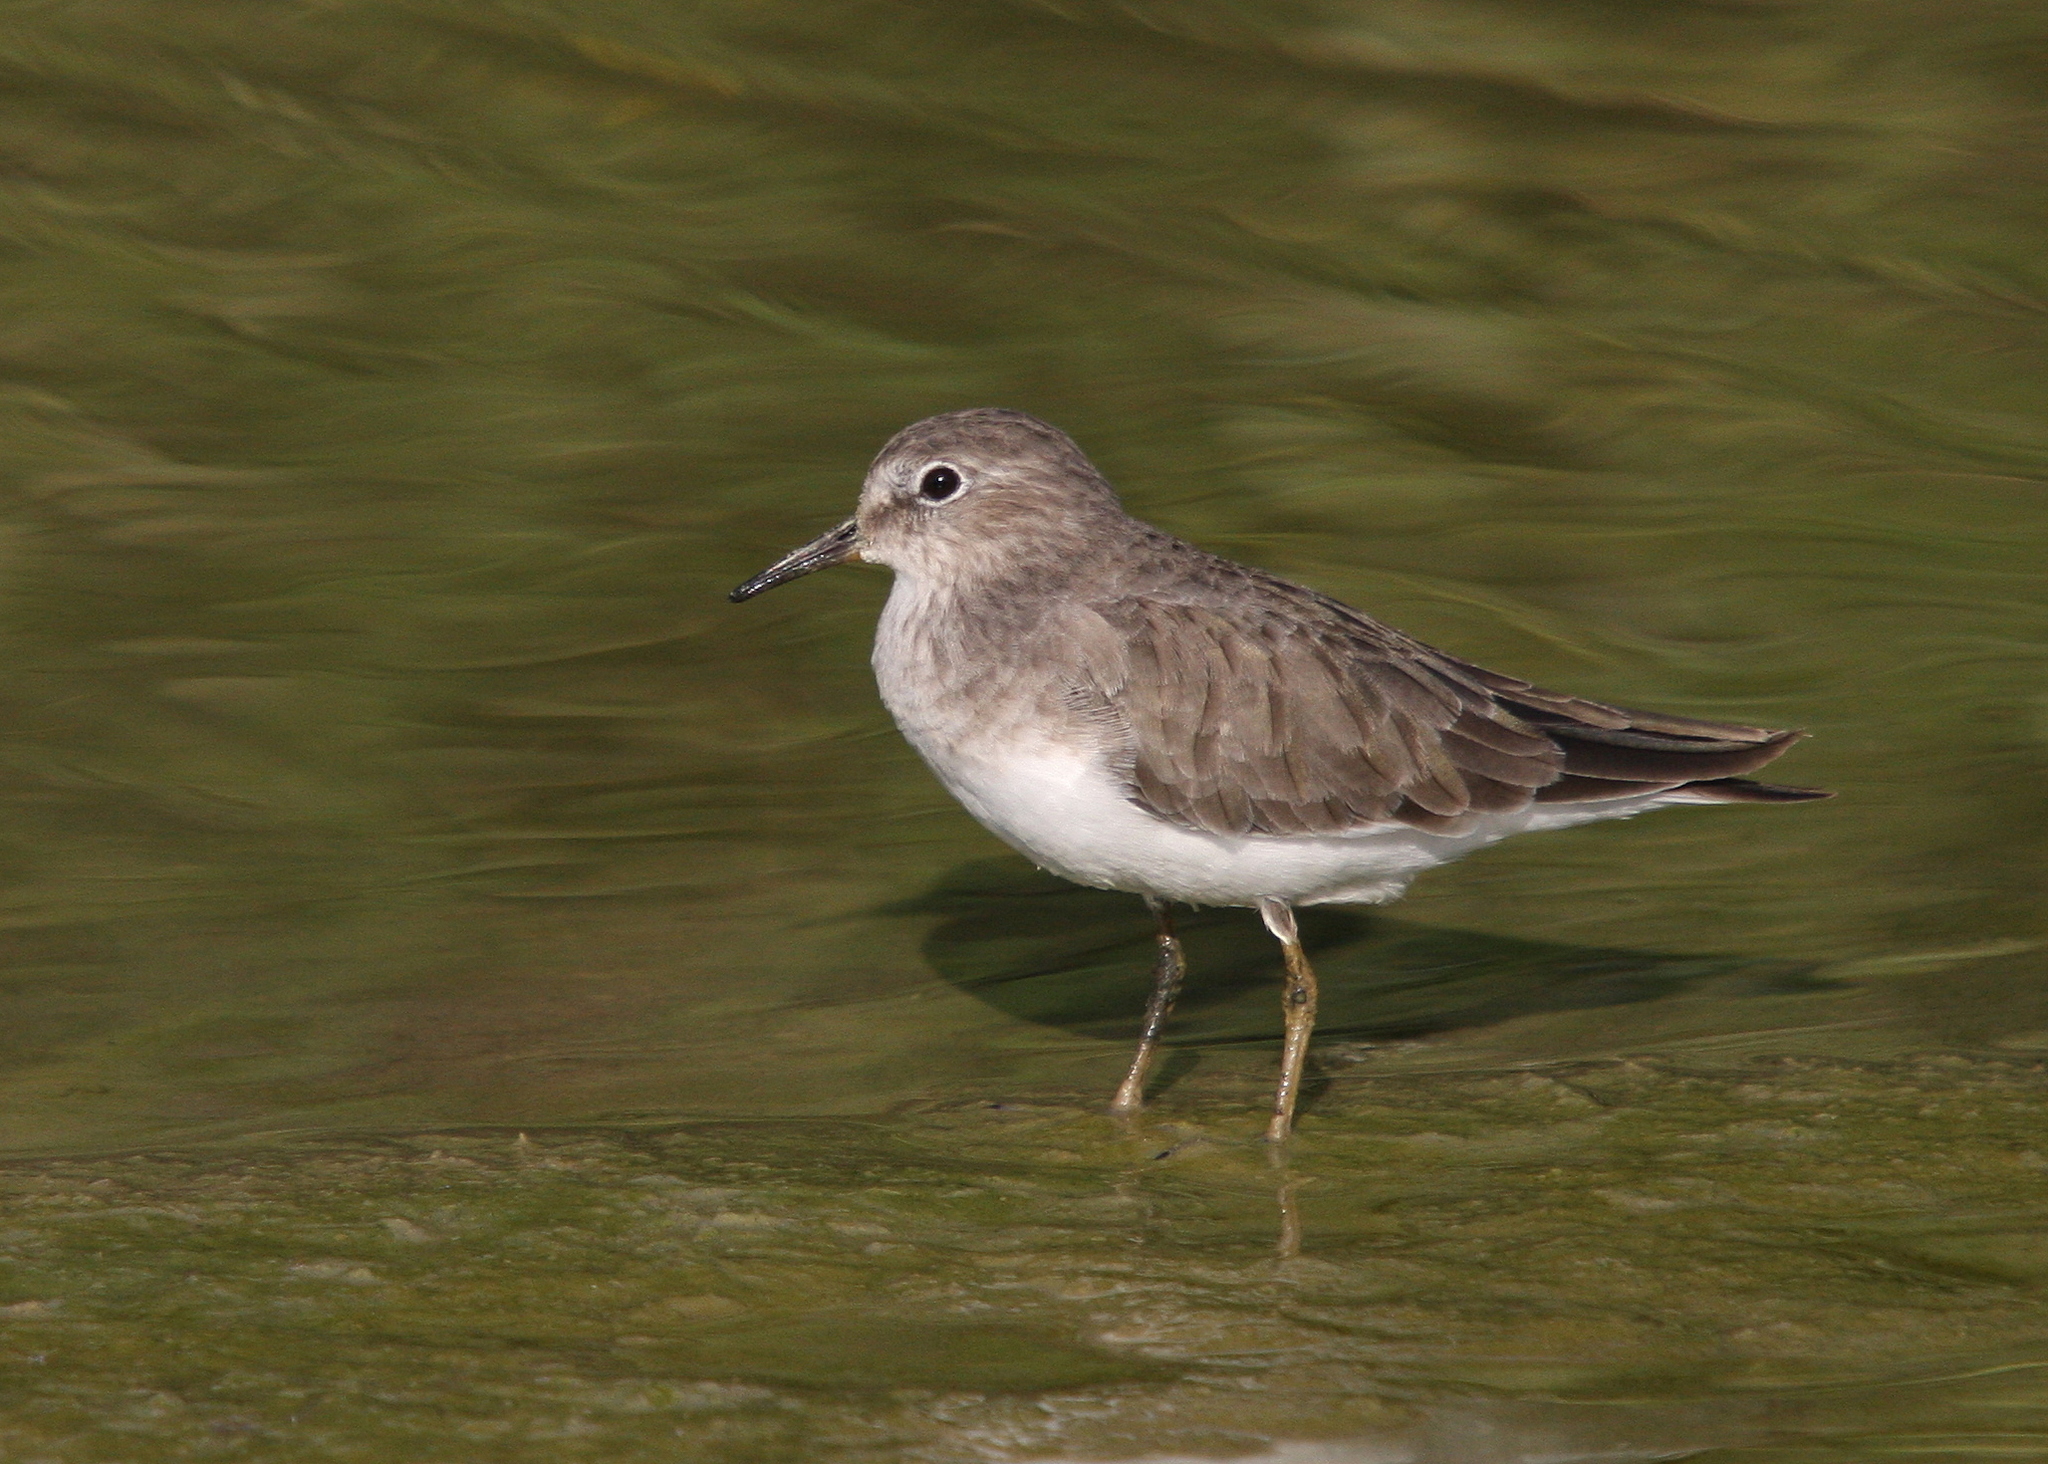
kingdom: Animalia
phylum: Chordata
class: Aves
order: Charadriiformes
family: Scolopacidae
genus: Calidris
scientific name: Calidris temminckii
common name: Temminck's stint
